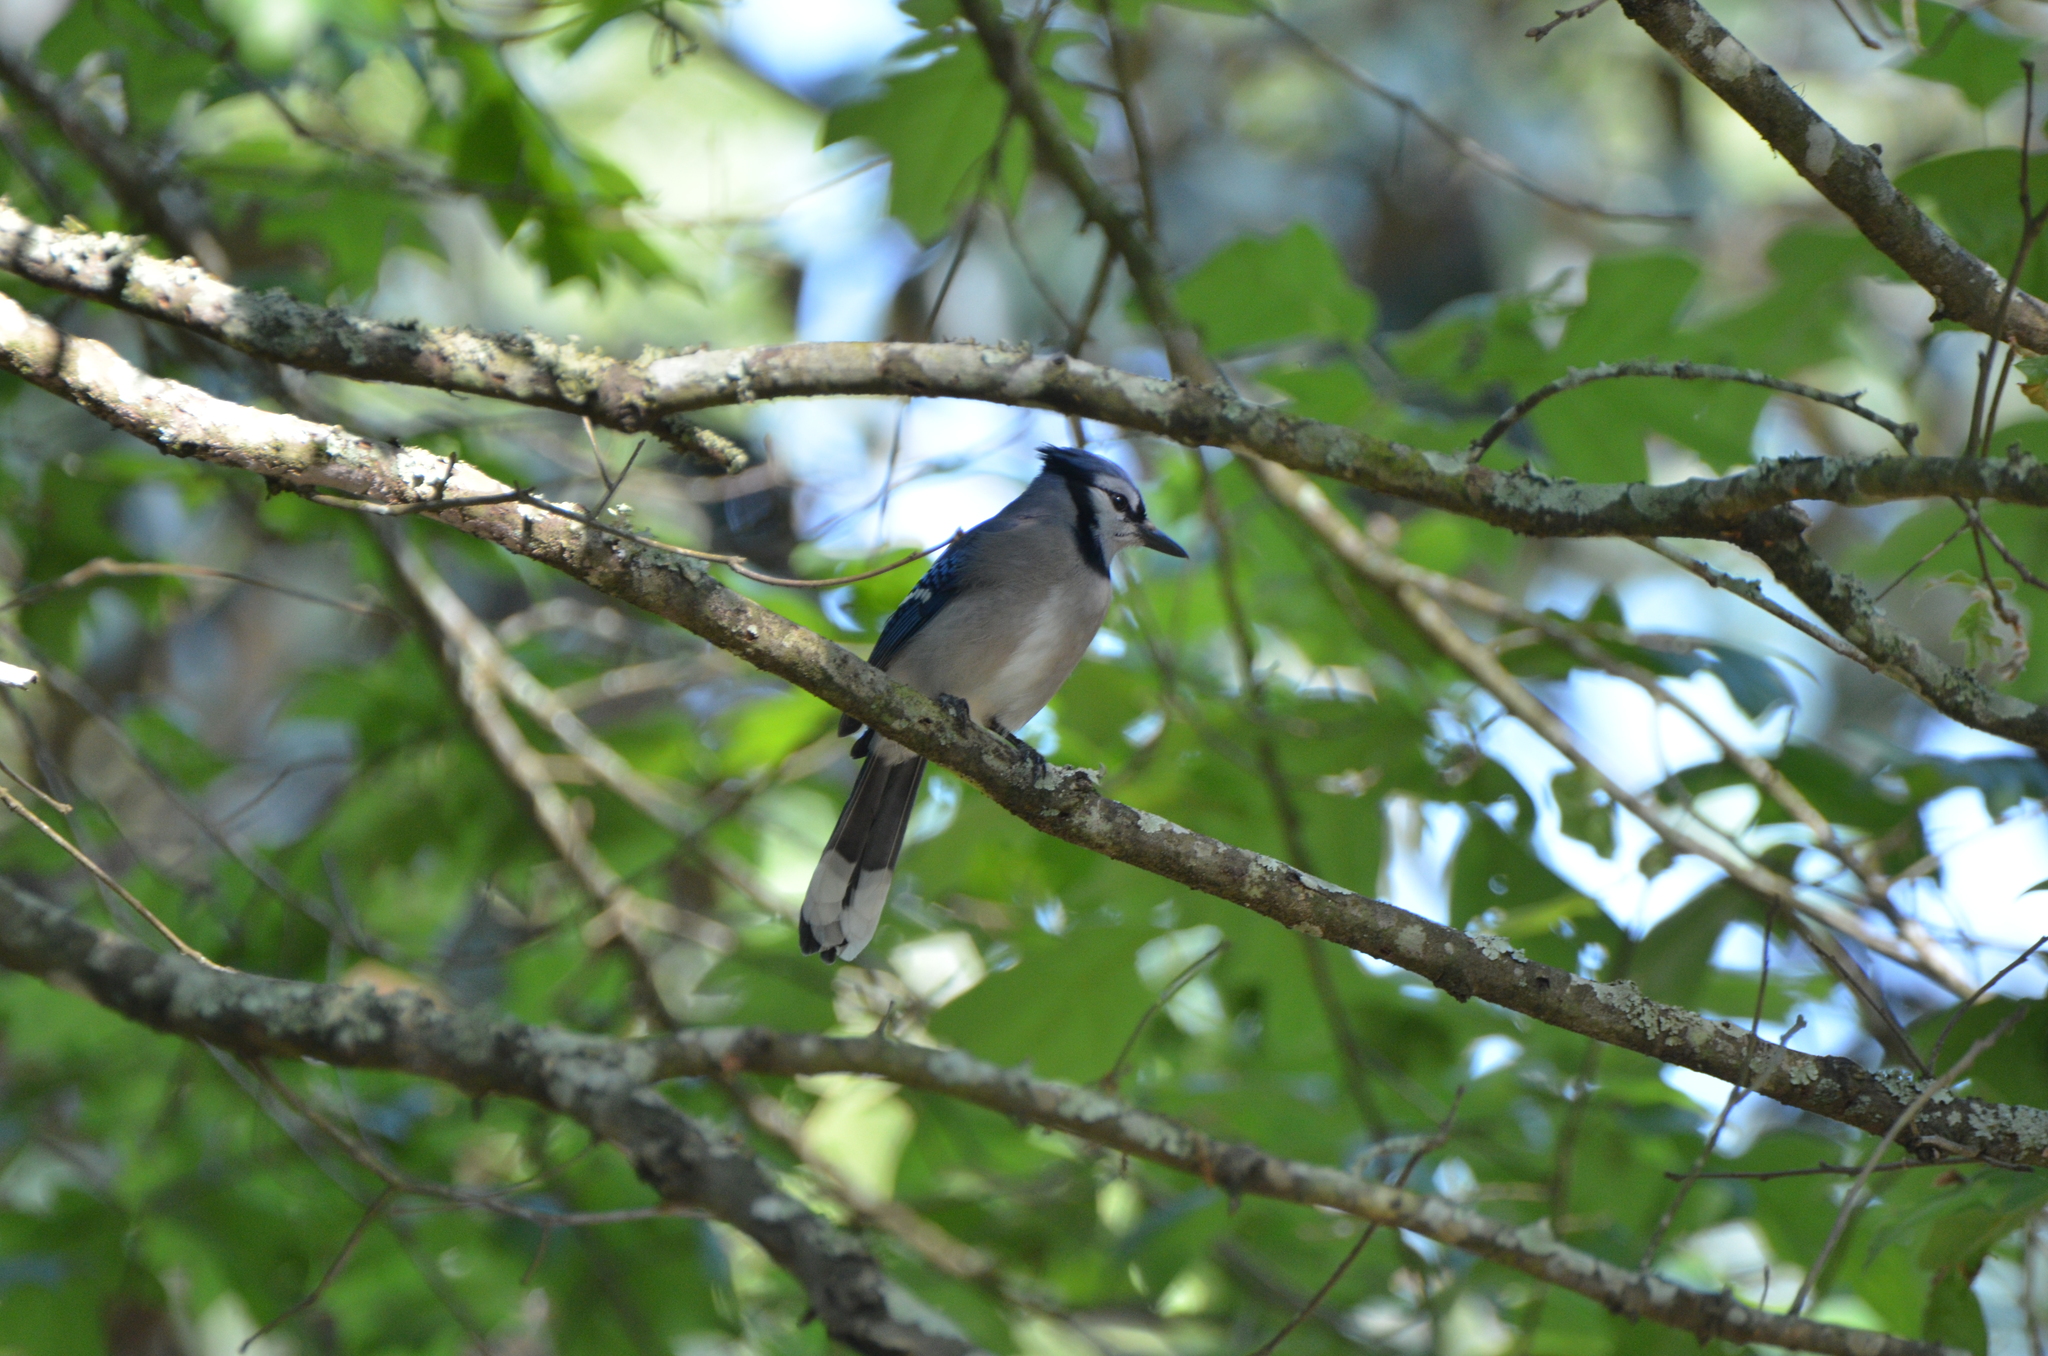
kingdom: Animalia
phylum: Chordata
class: Aves
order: Passeriformes
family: Corvidae
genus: Cyanocitta
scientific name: Cyanocitta cristata
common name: Blue jay
